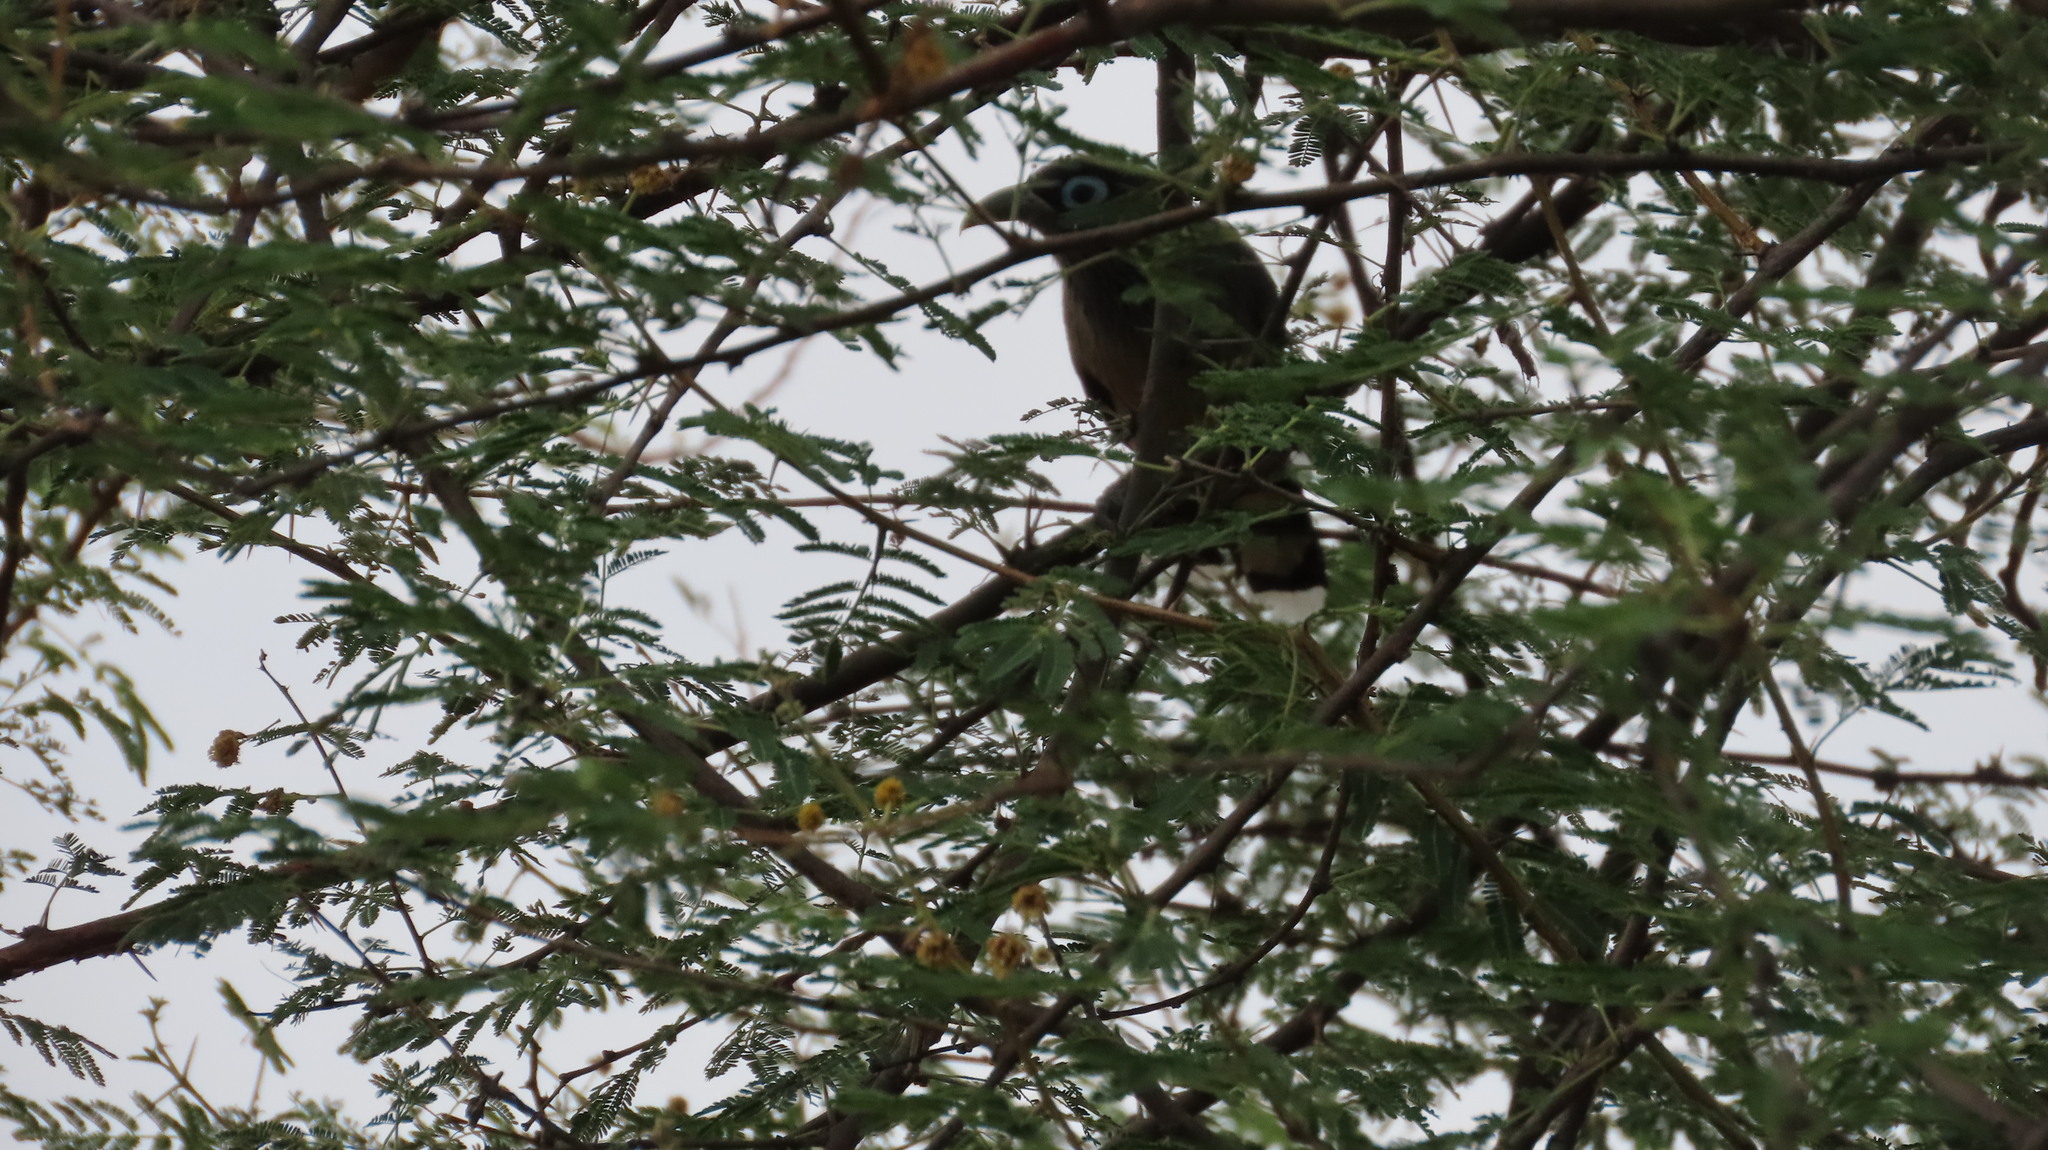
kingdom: Animalia
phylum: Chordata
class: Aves
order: Cuculiformes
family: Cuculidae
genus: Rhopodytes
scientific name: Rhopodytes viridirostris
